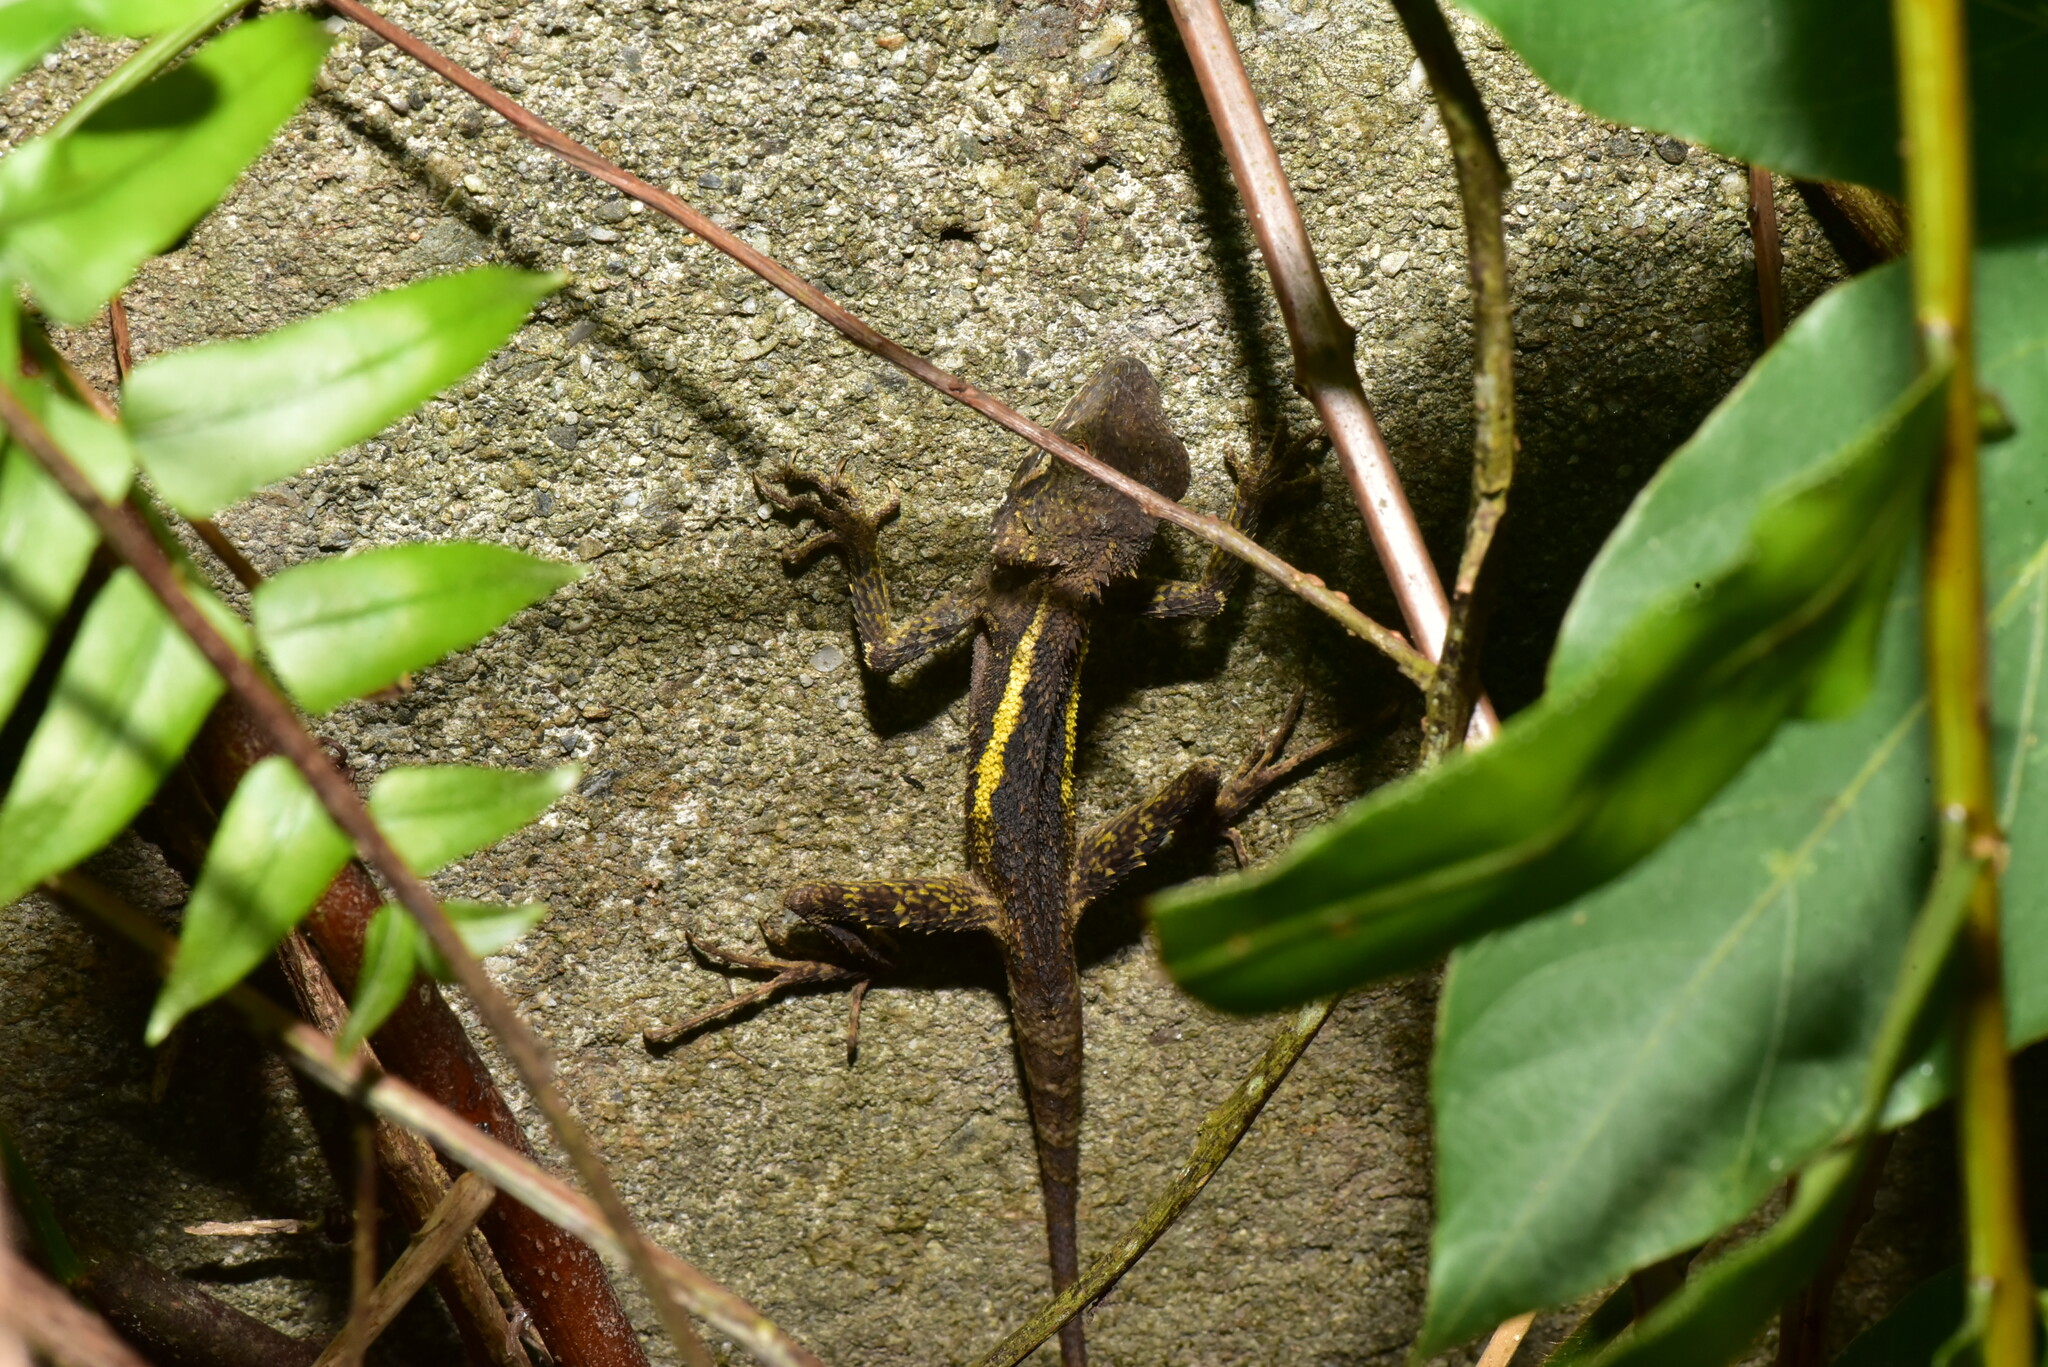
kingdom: Animalia
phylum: Chordata
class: Squamata
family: Agamidae
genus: Diploderma
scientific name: Diploderma swinhonis
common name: Taiwan japalure
